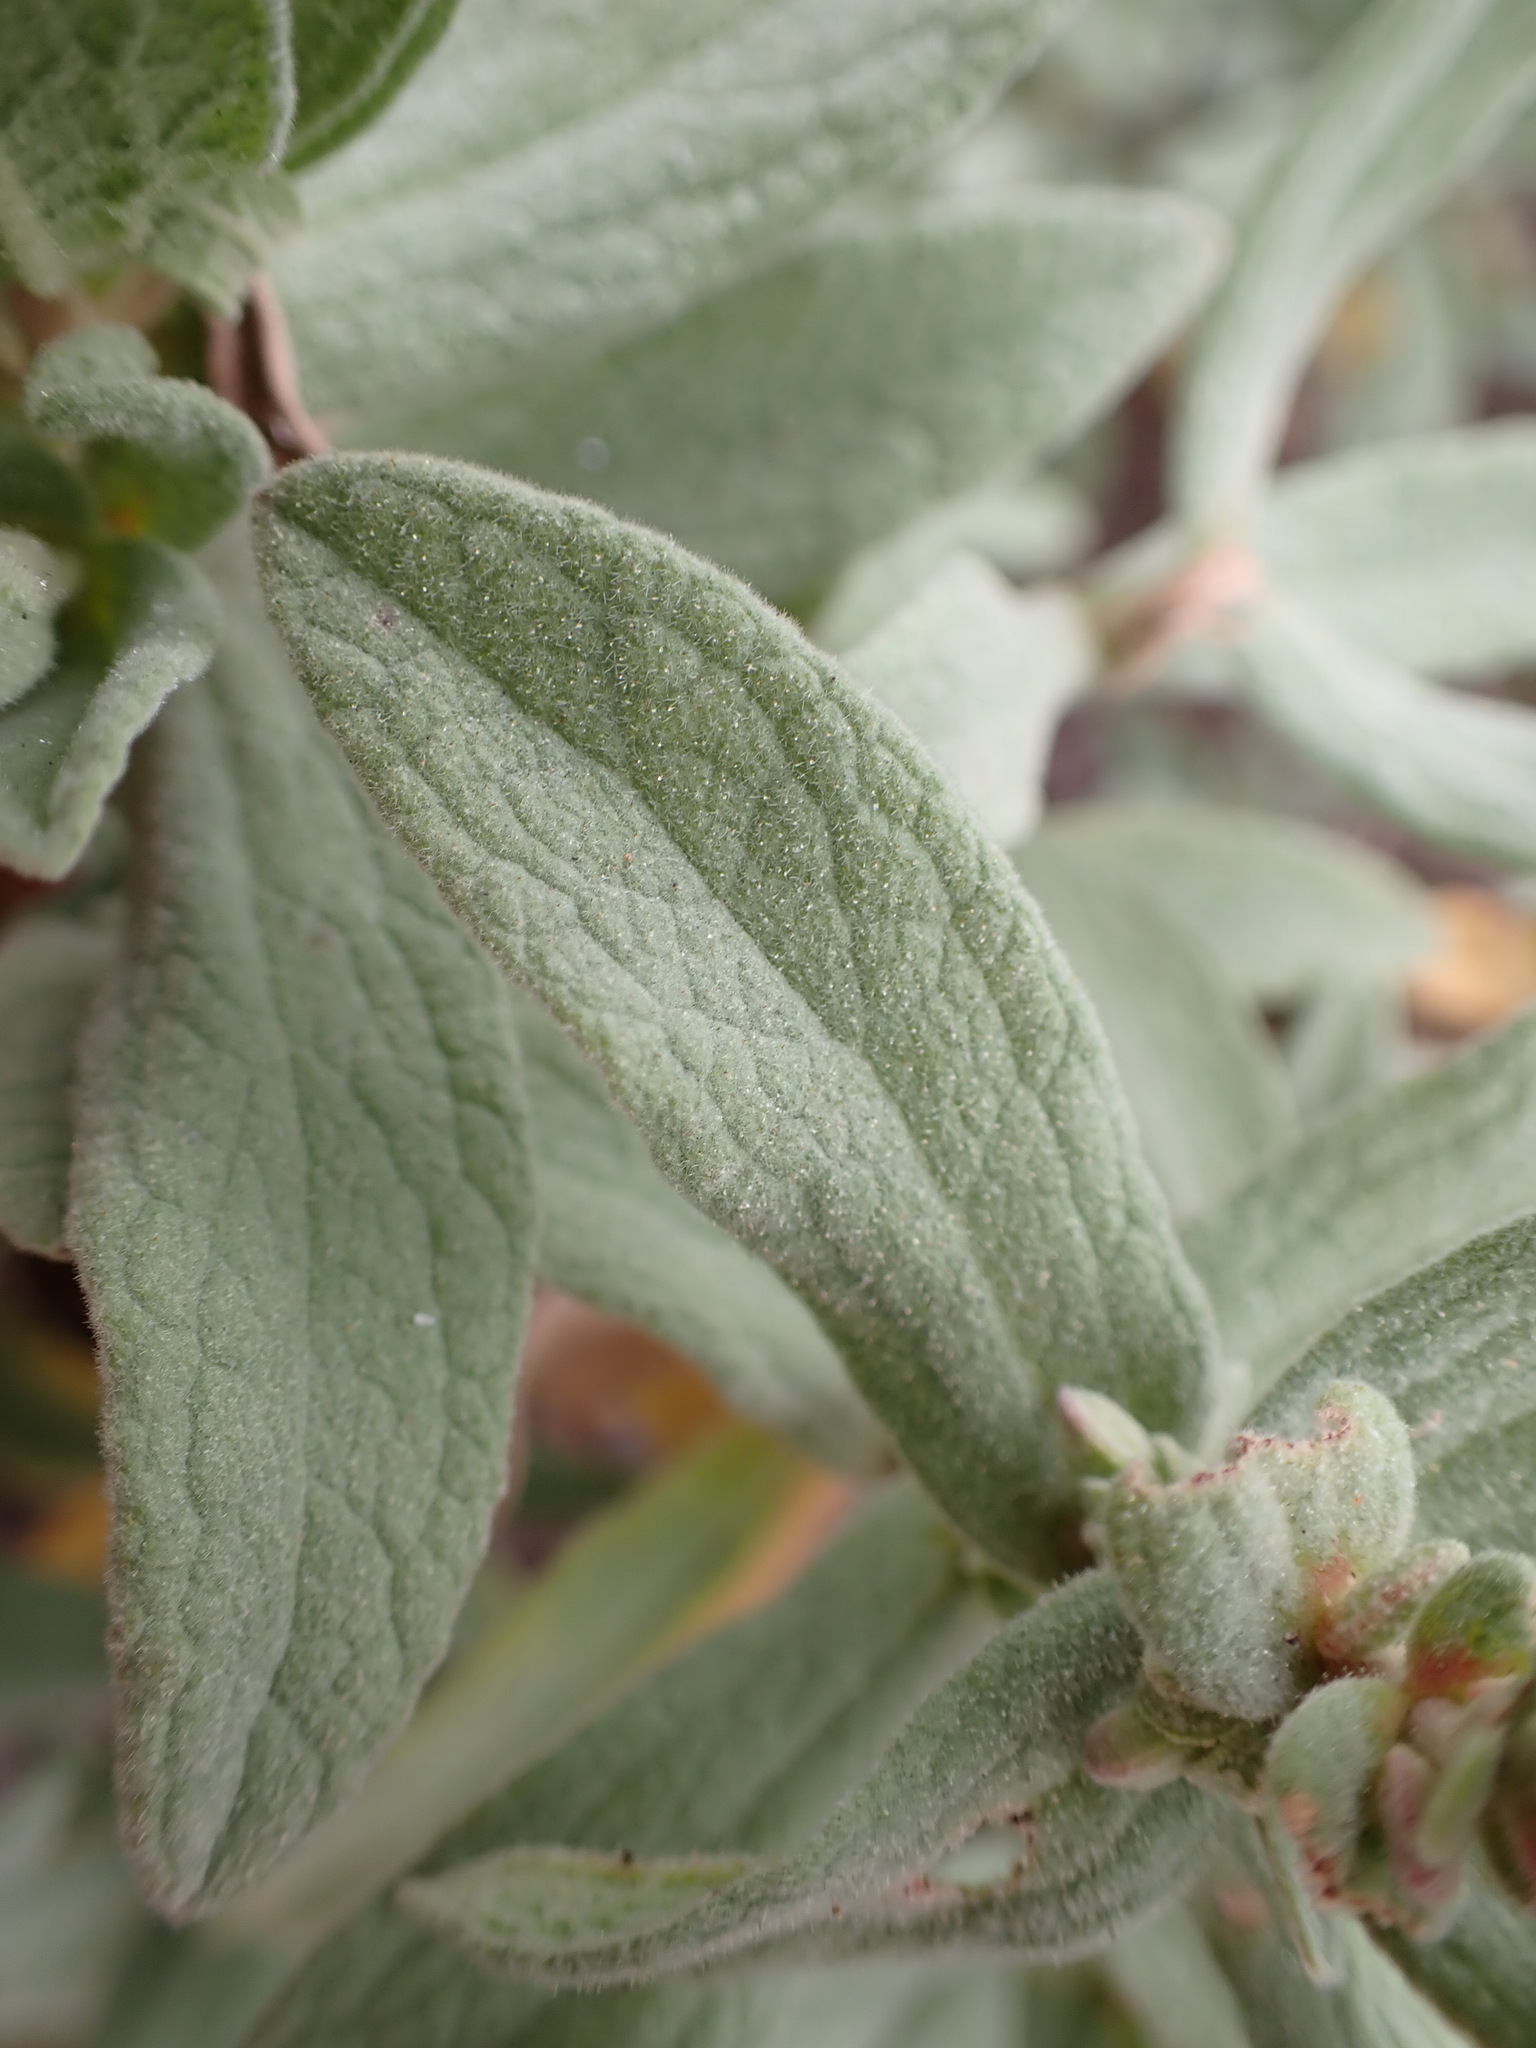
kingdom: Plantae
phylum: Tracheophyta
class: Magnoliopsida
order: Malvales
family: Cistaceae
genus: Cistus
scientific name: Cistus albidus
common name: White-leaf rock-rose
